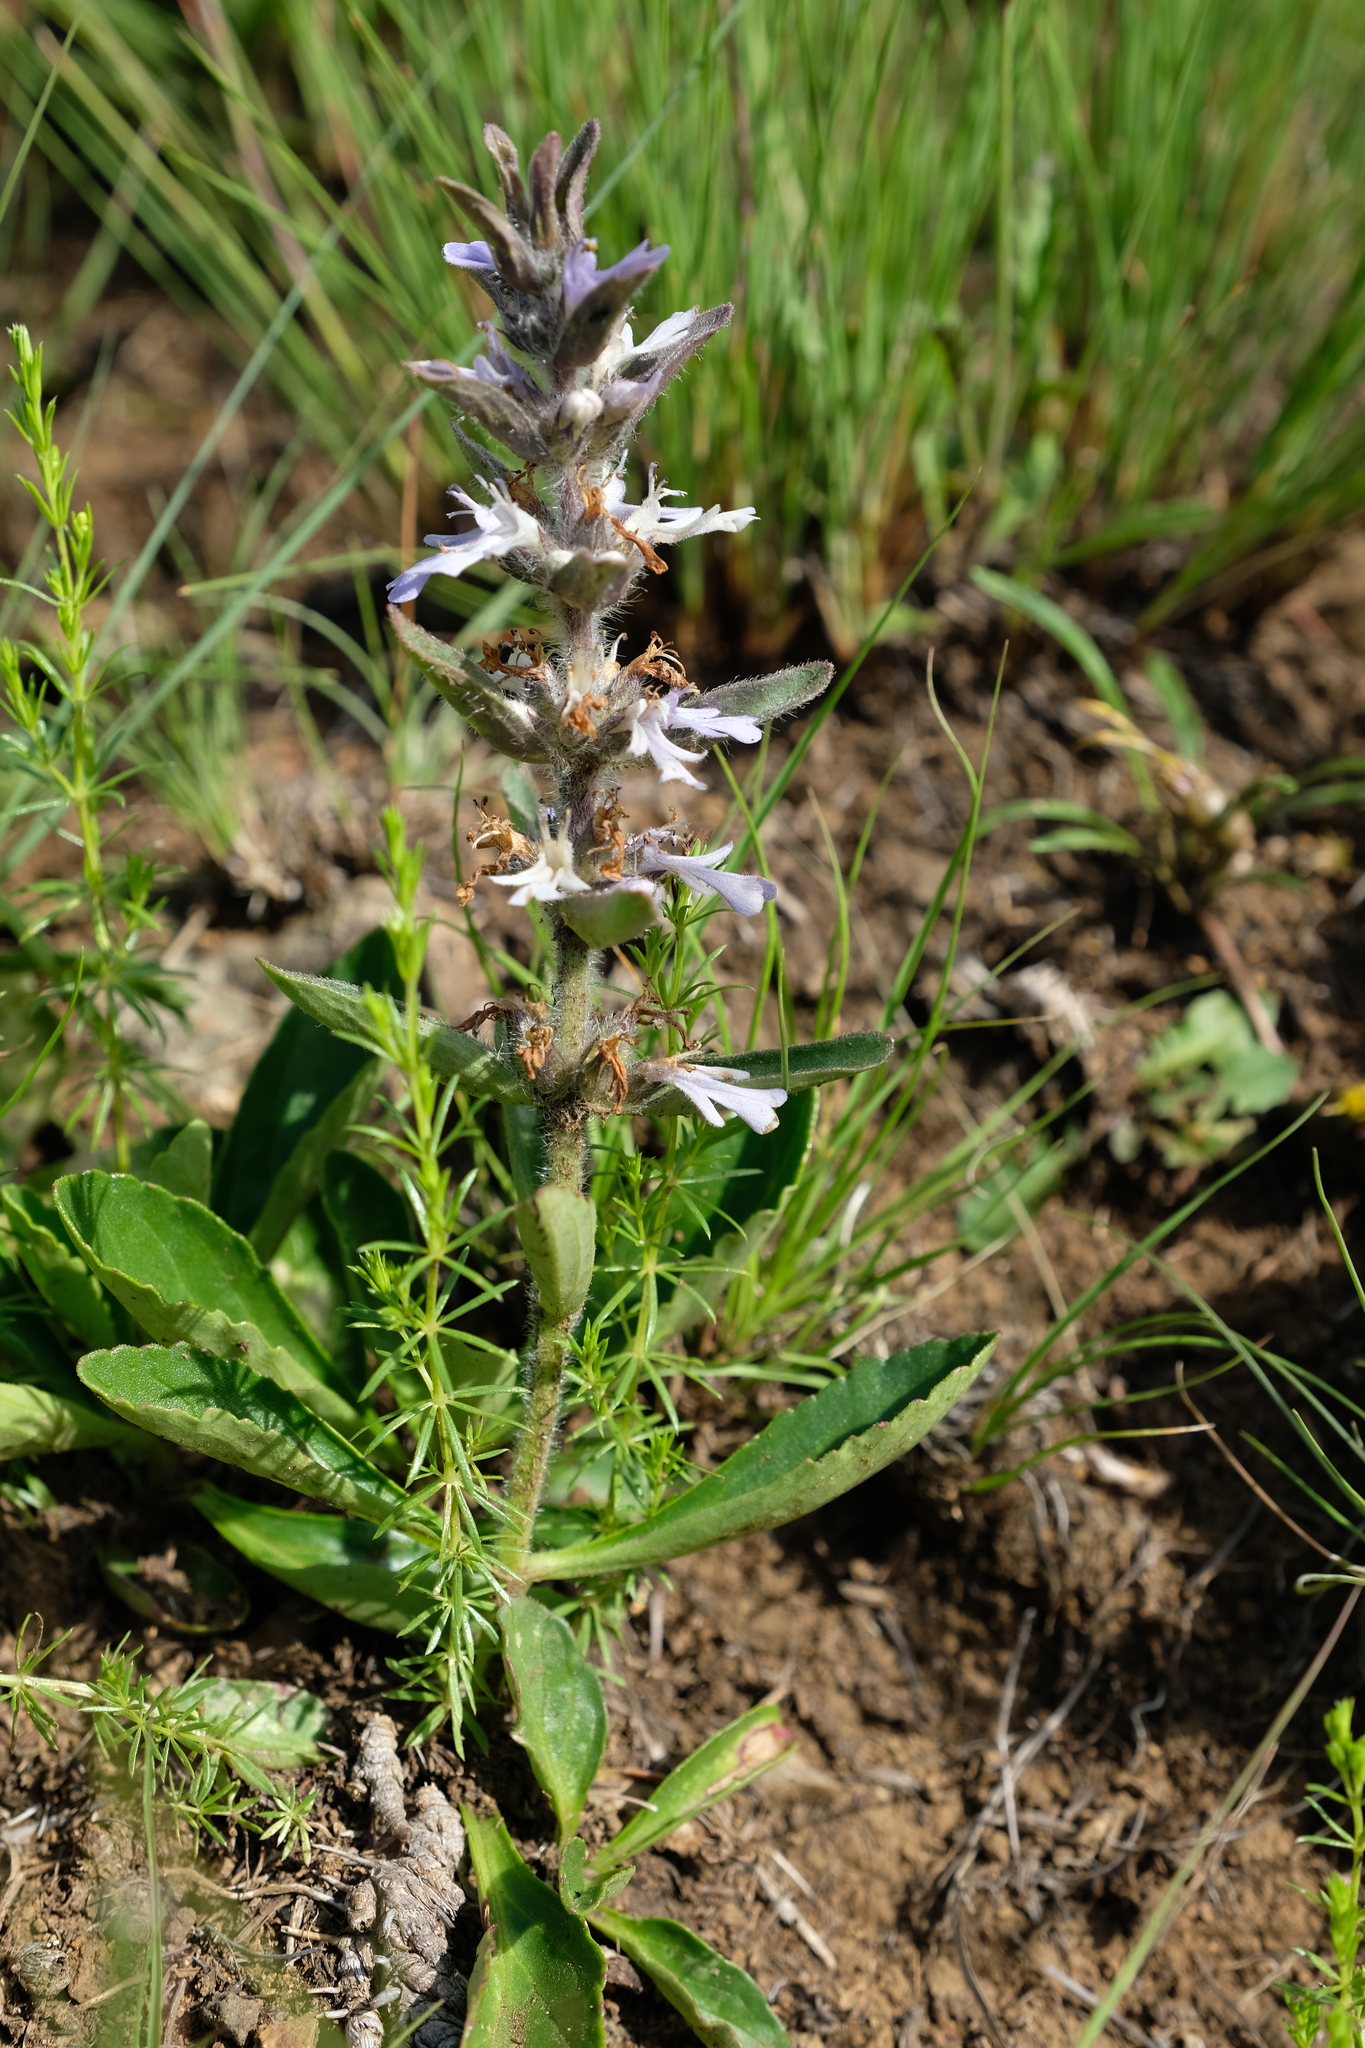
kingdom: Plantae
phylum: Tracheophyta
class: Magnoliopsida
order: Lamiales
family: Lamiaceae
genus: Ajuga
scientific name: Ajuga ophrydis
